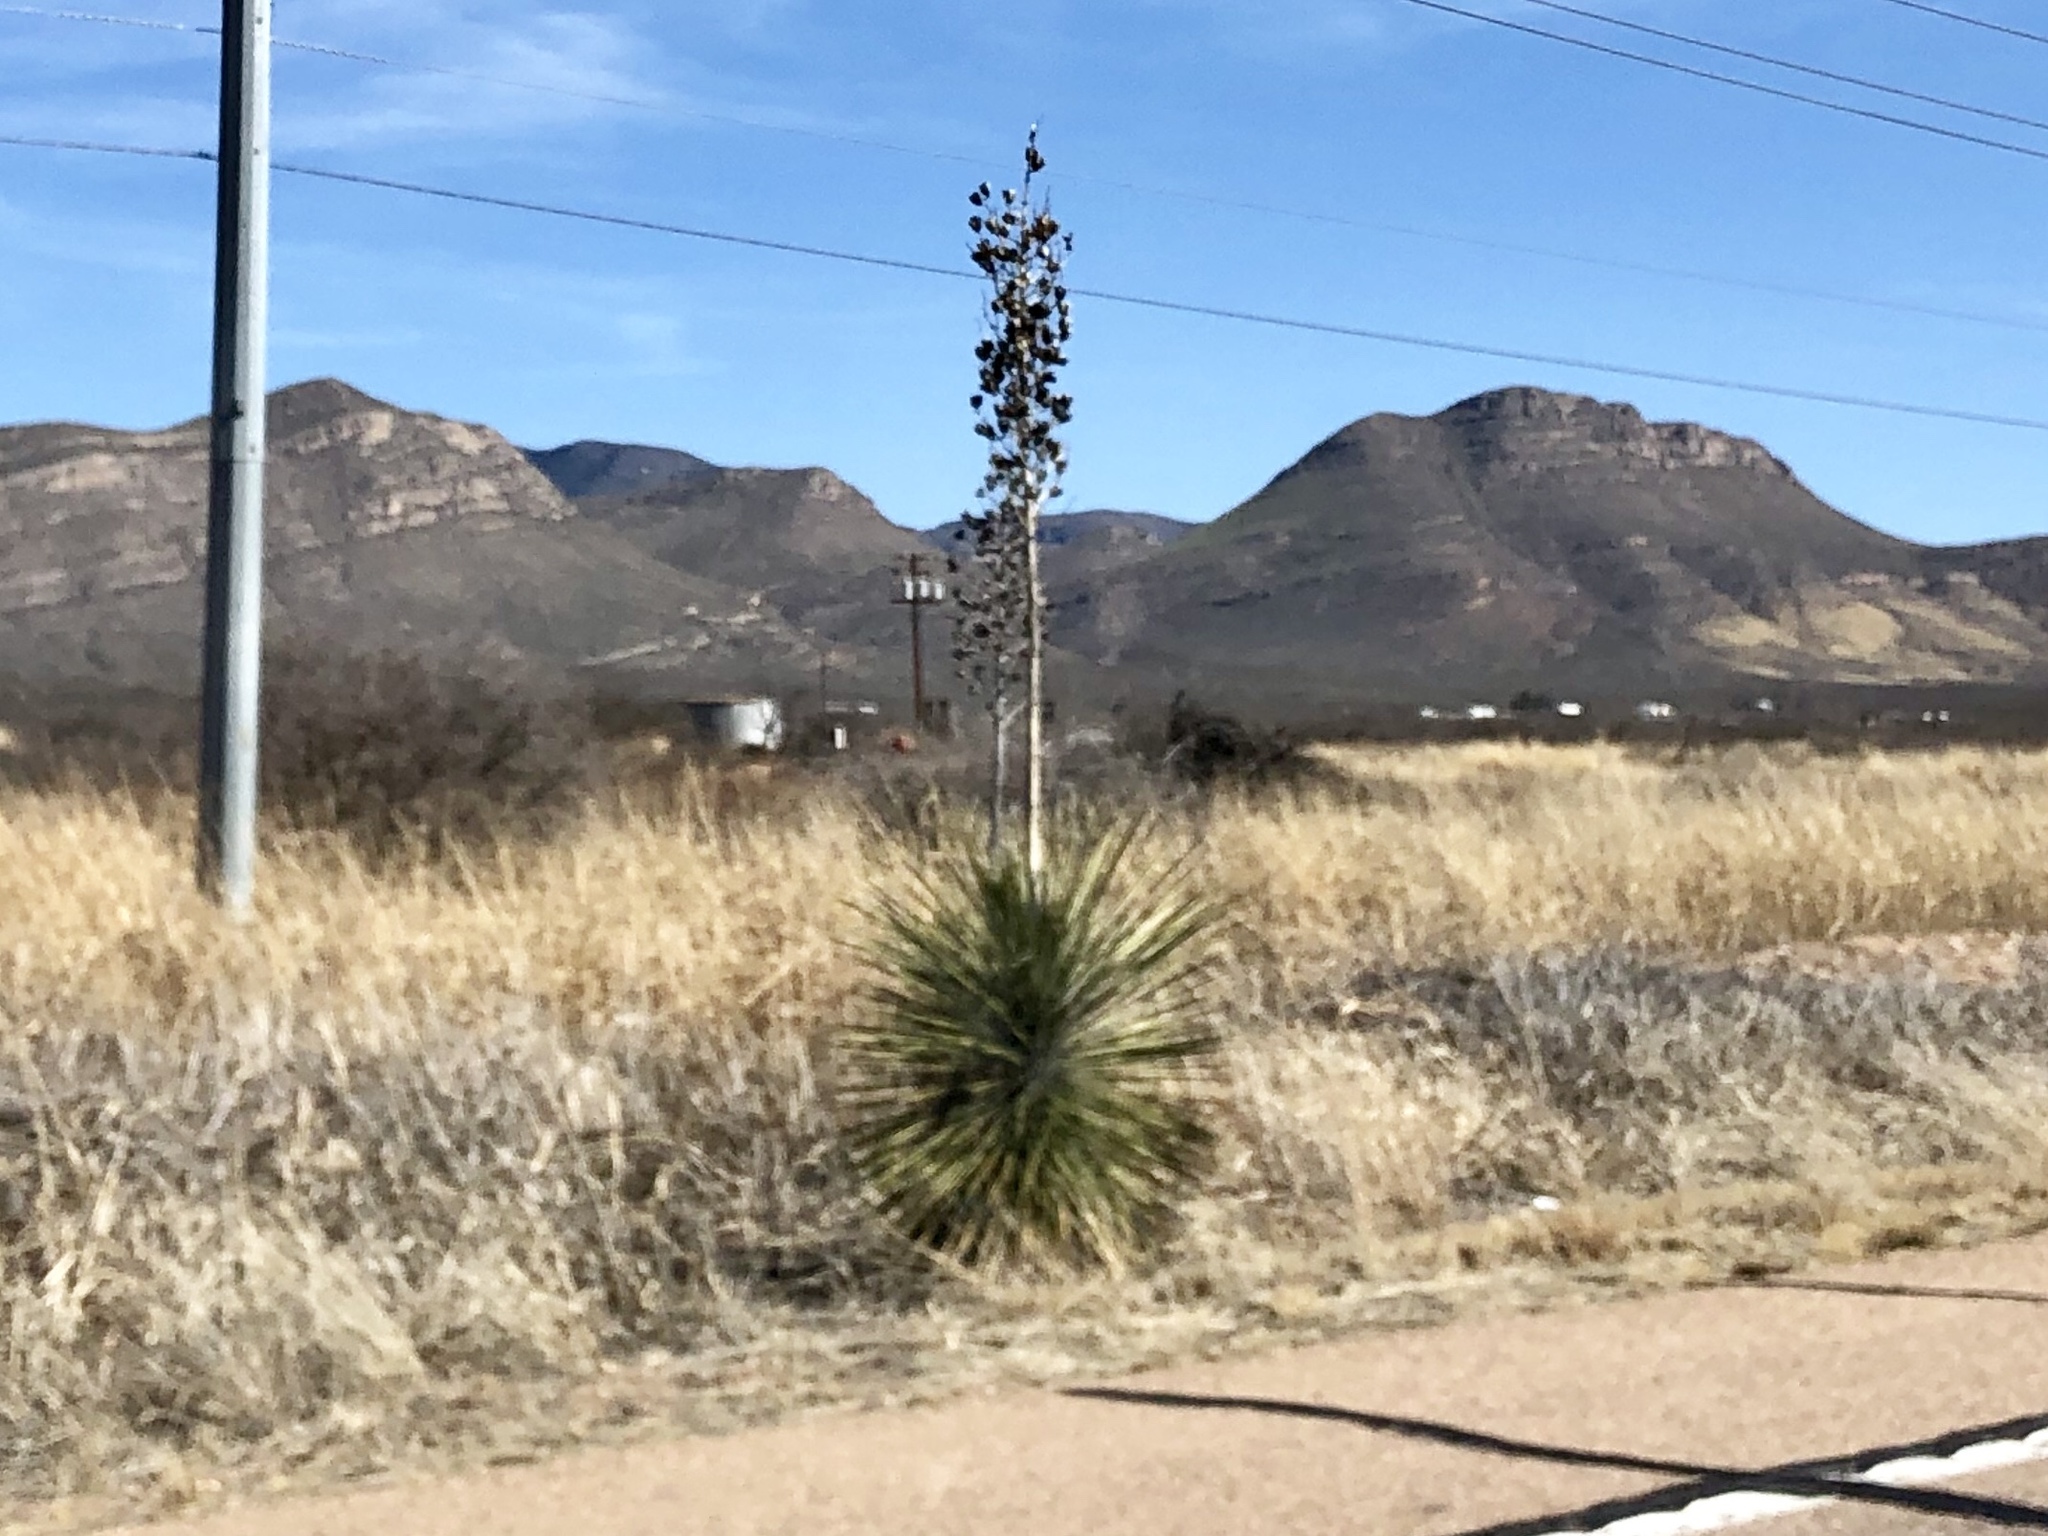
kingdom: Plantae
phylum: Tracheophyta
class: Liliopsida
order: Asparagales
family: Asparagaceae
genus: Yucca
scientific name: Yucca elata
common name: Palmella
